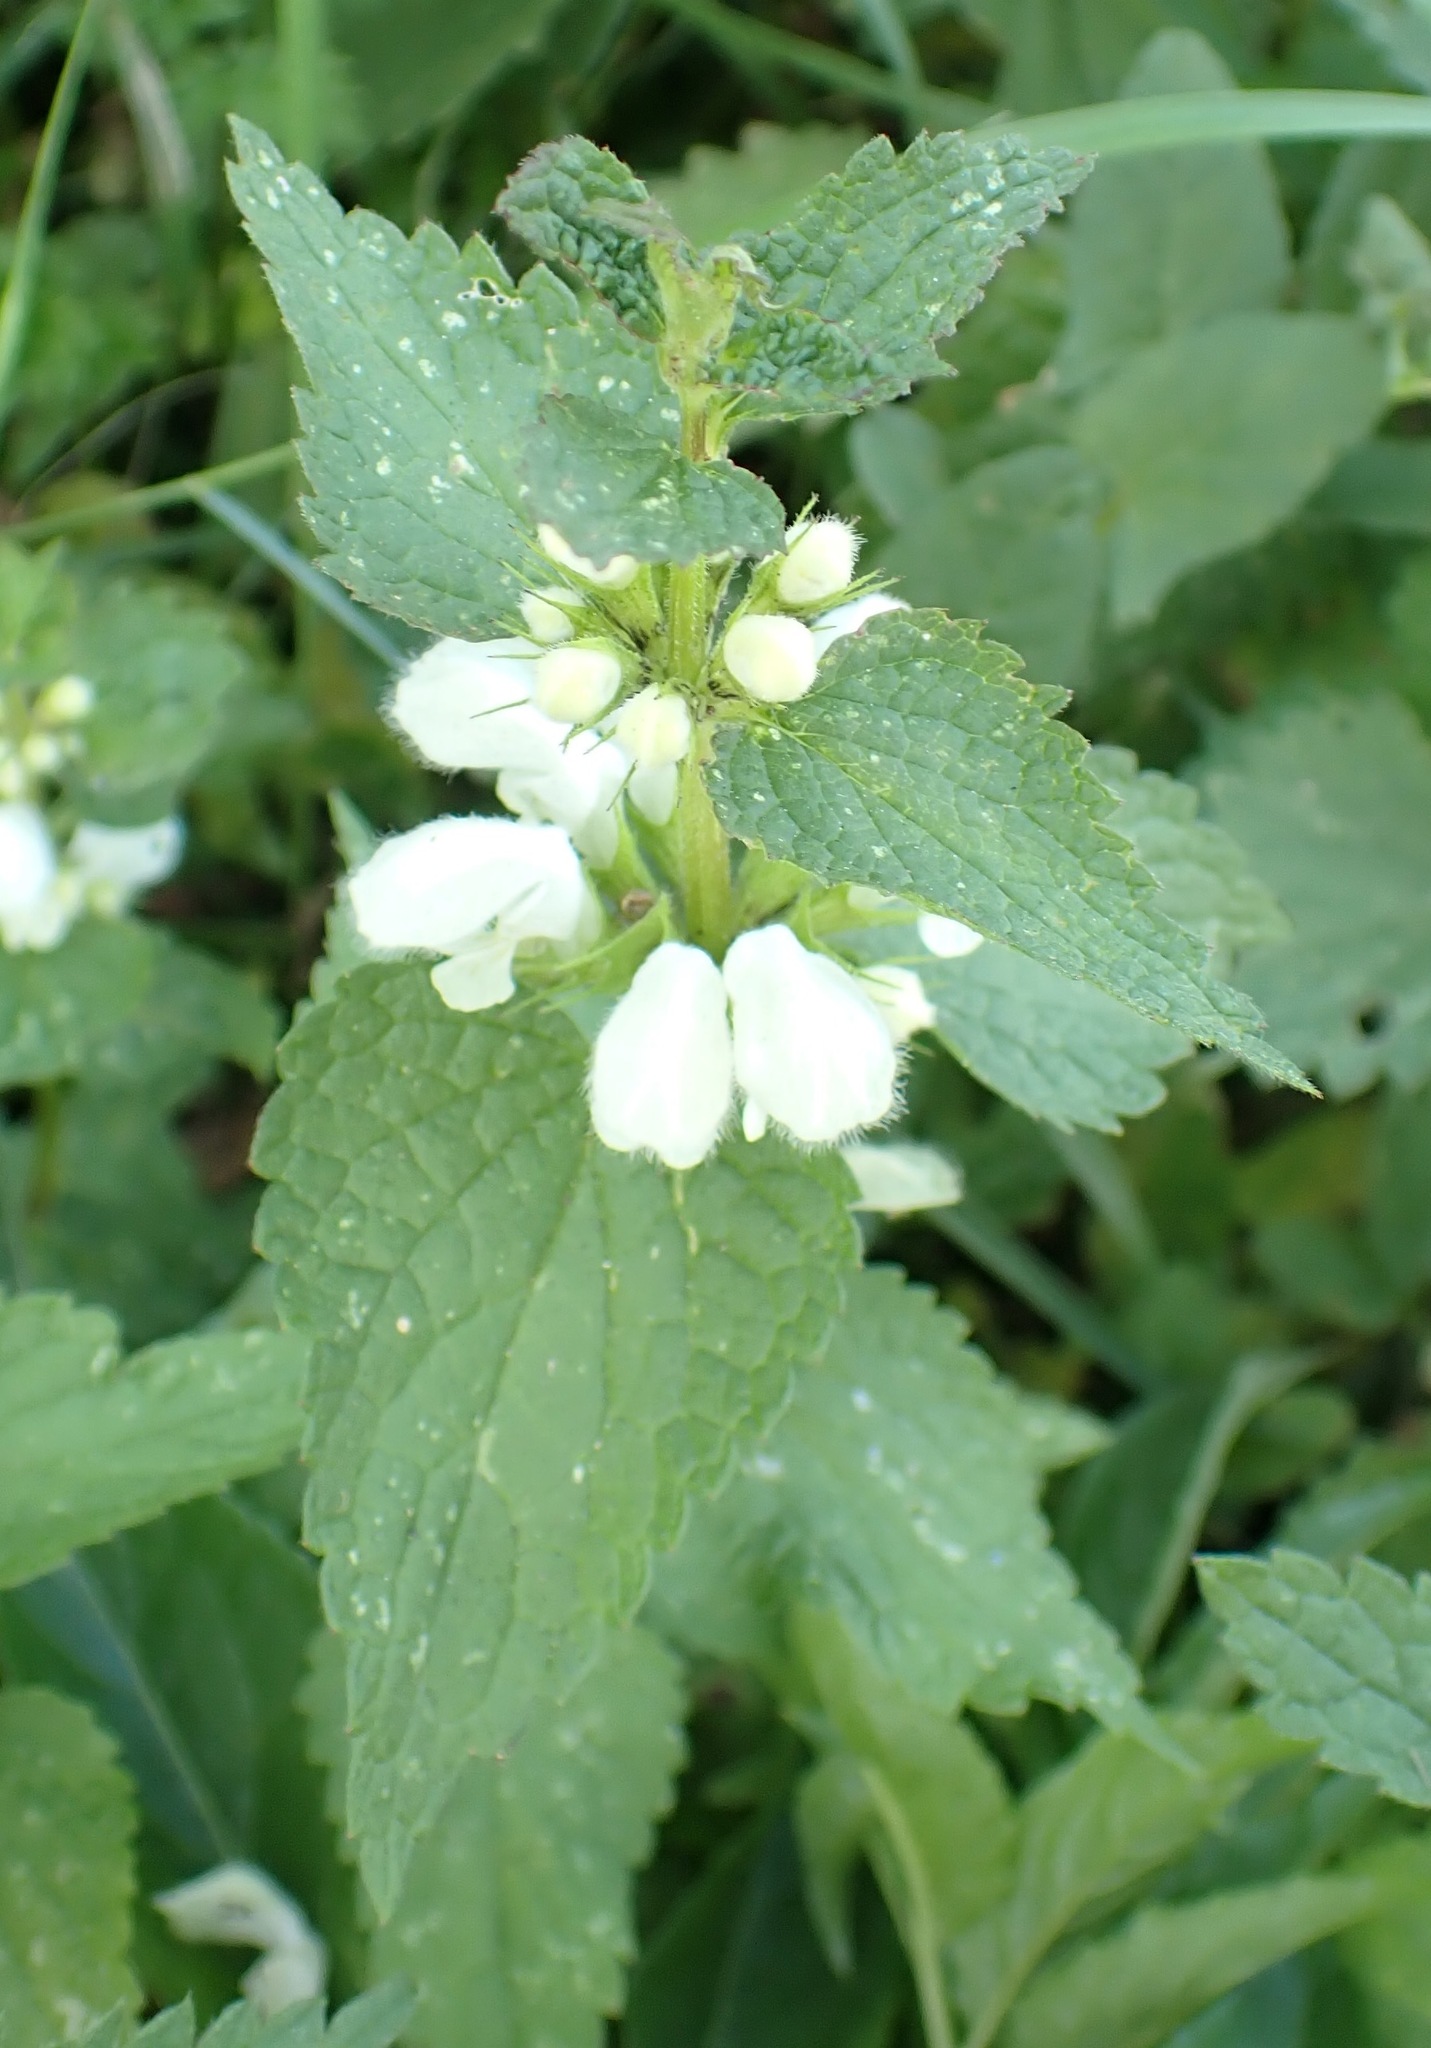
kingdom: Plantae
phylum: Tracheophyta
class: Magnoliopsida
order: Lamiales
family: Lamiaceae
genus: Lamium
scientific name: Lamium album
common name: White dead-nettle
